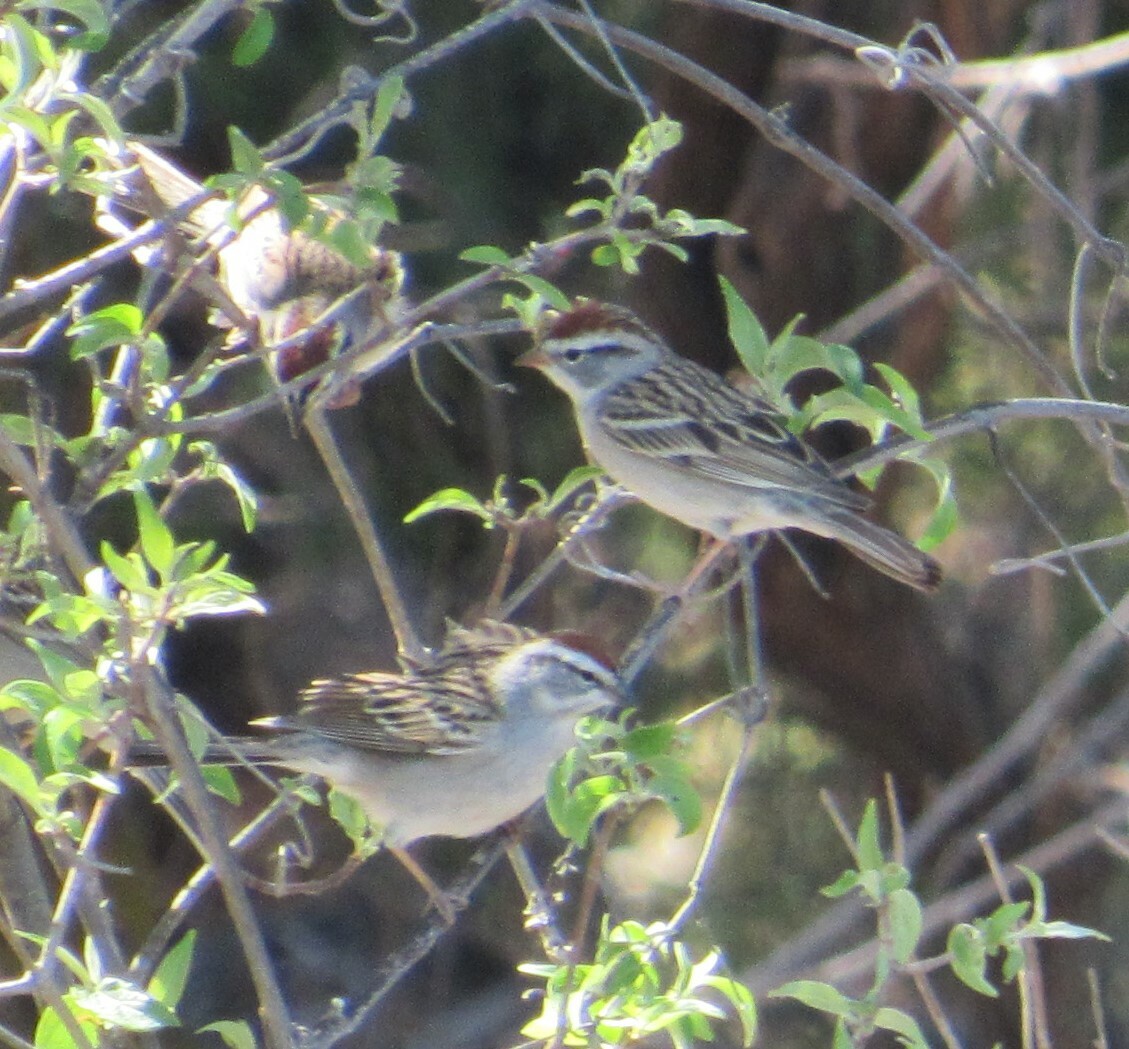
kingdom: Animalia
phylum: Chordata
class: Aves
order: Passeriformes
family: Passerellidae
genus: Spizella
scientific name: Spizella passerina
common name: Chipping sparrow
